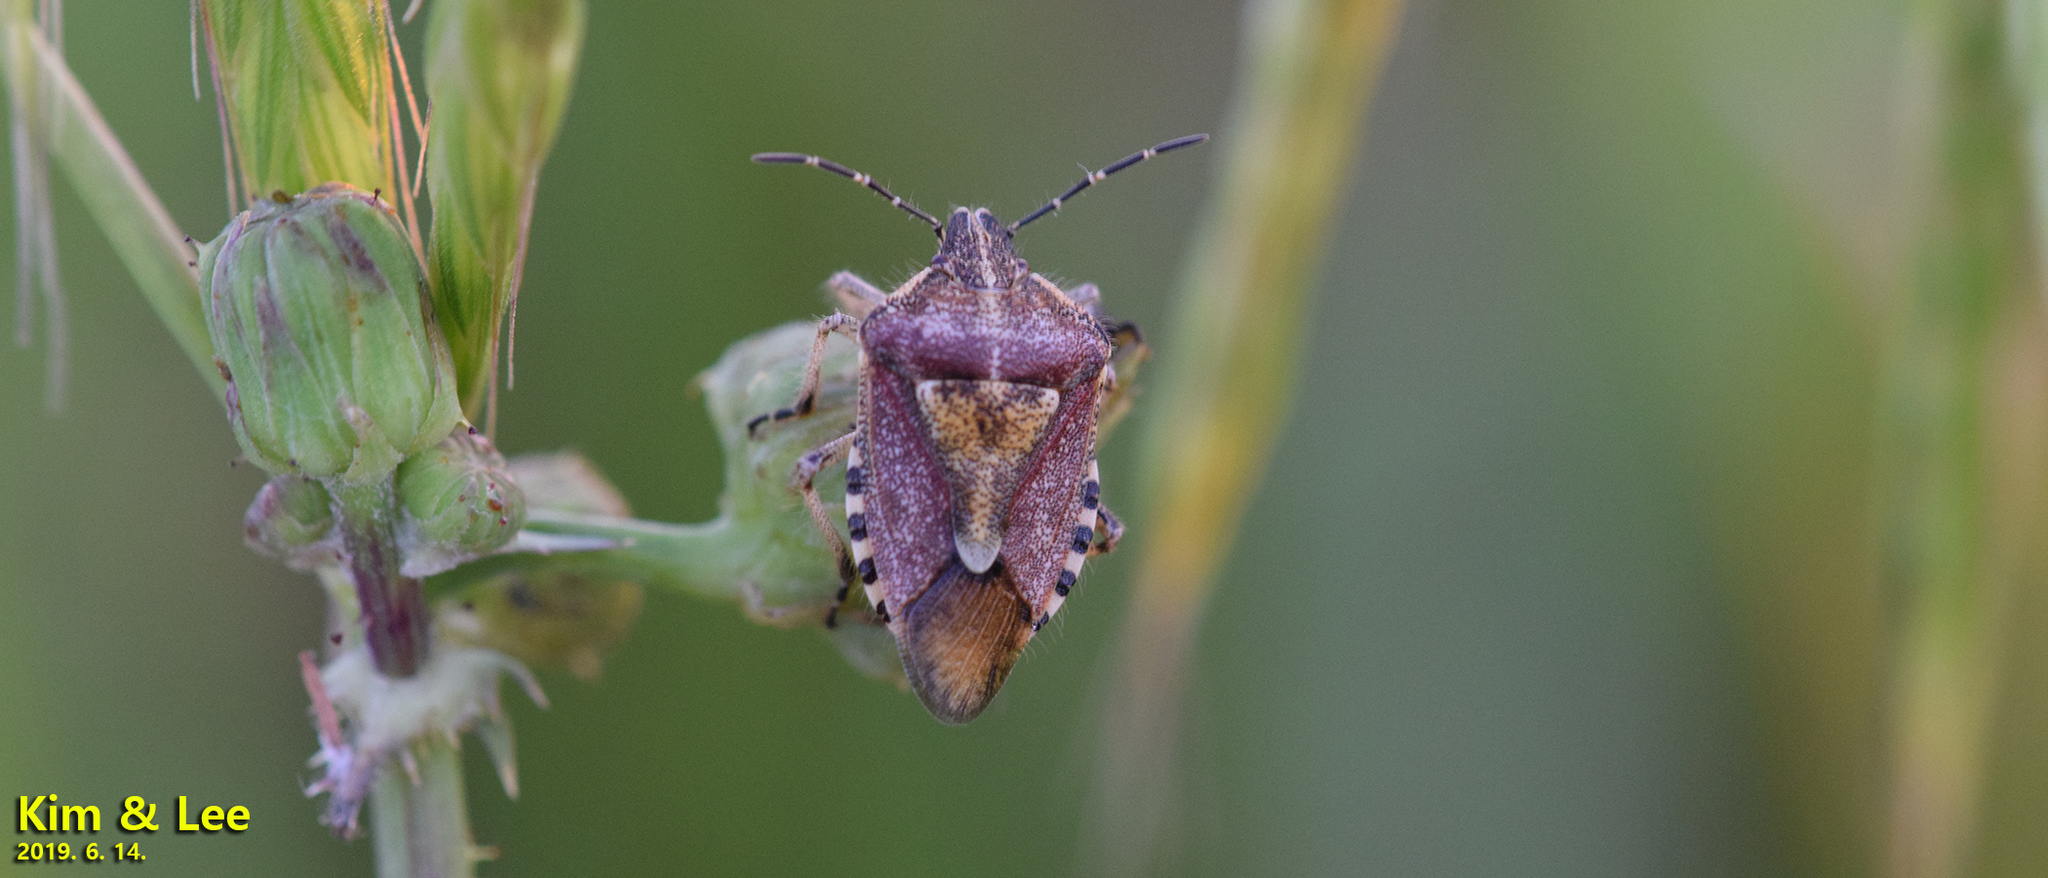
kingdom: Animalia
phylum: Arthropoda
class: Insecta
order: Hemiptera
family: Pentatomidae
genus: Dolycoris
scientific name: Dolycoris baccarum
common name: Sloe bug
